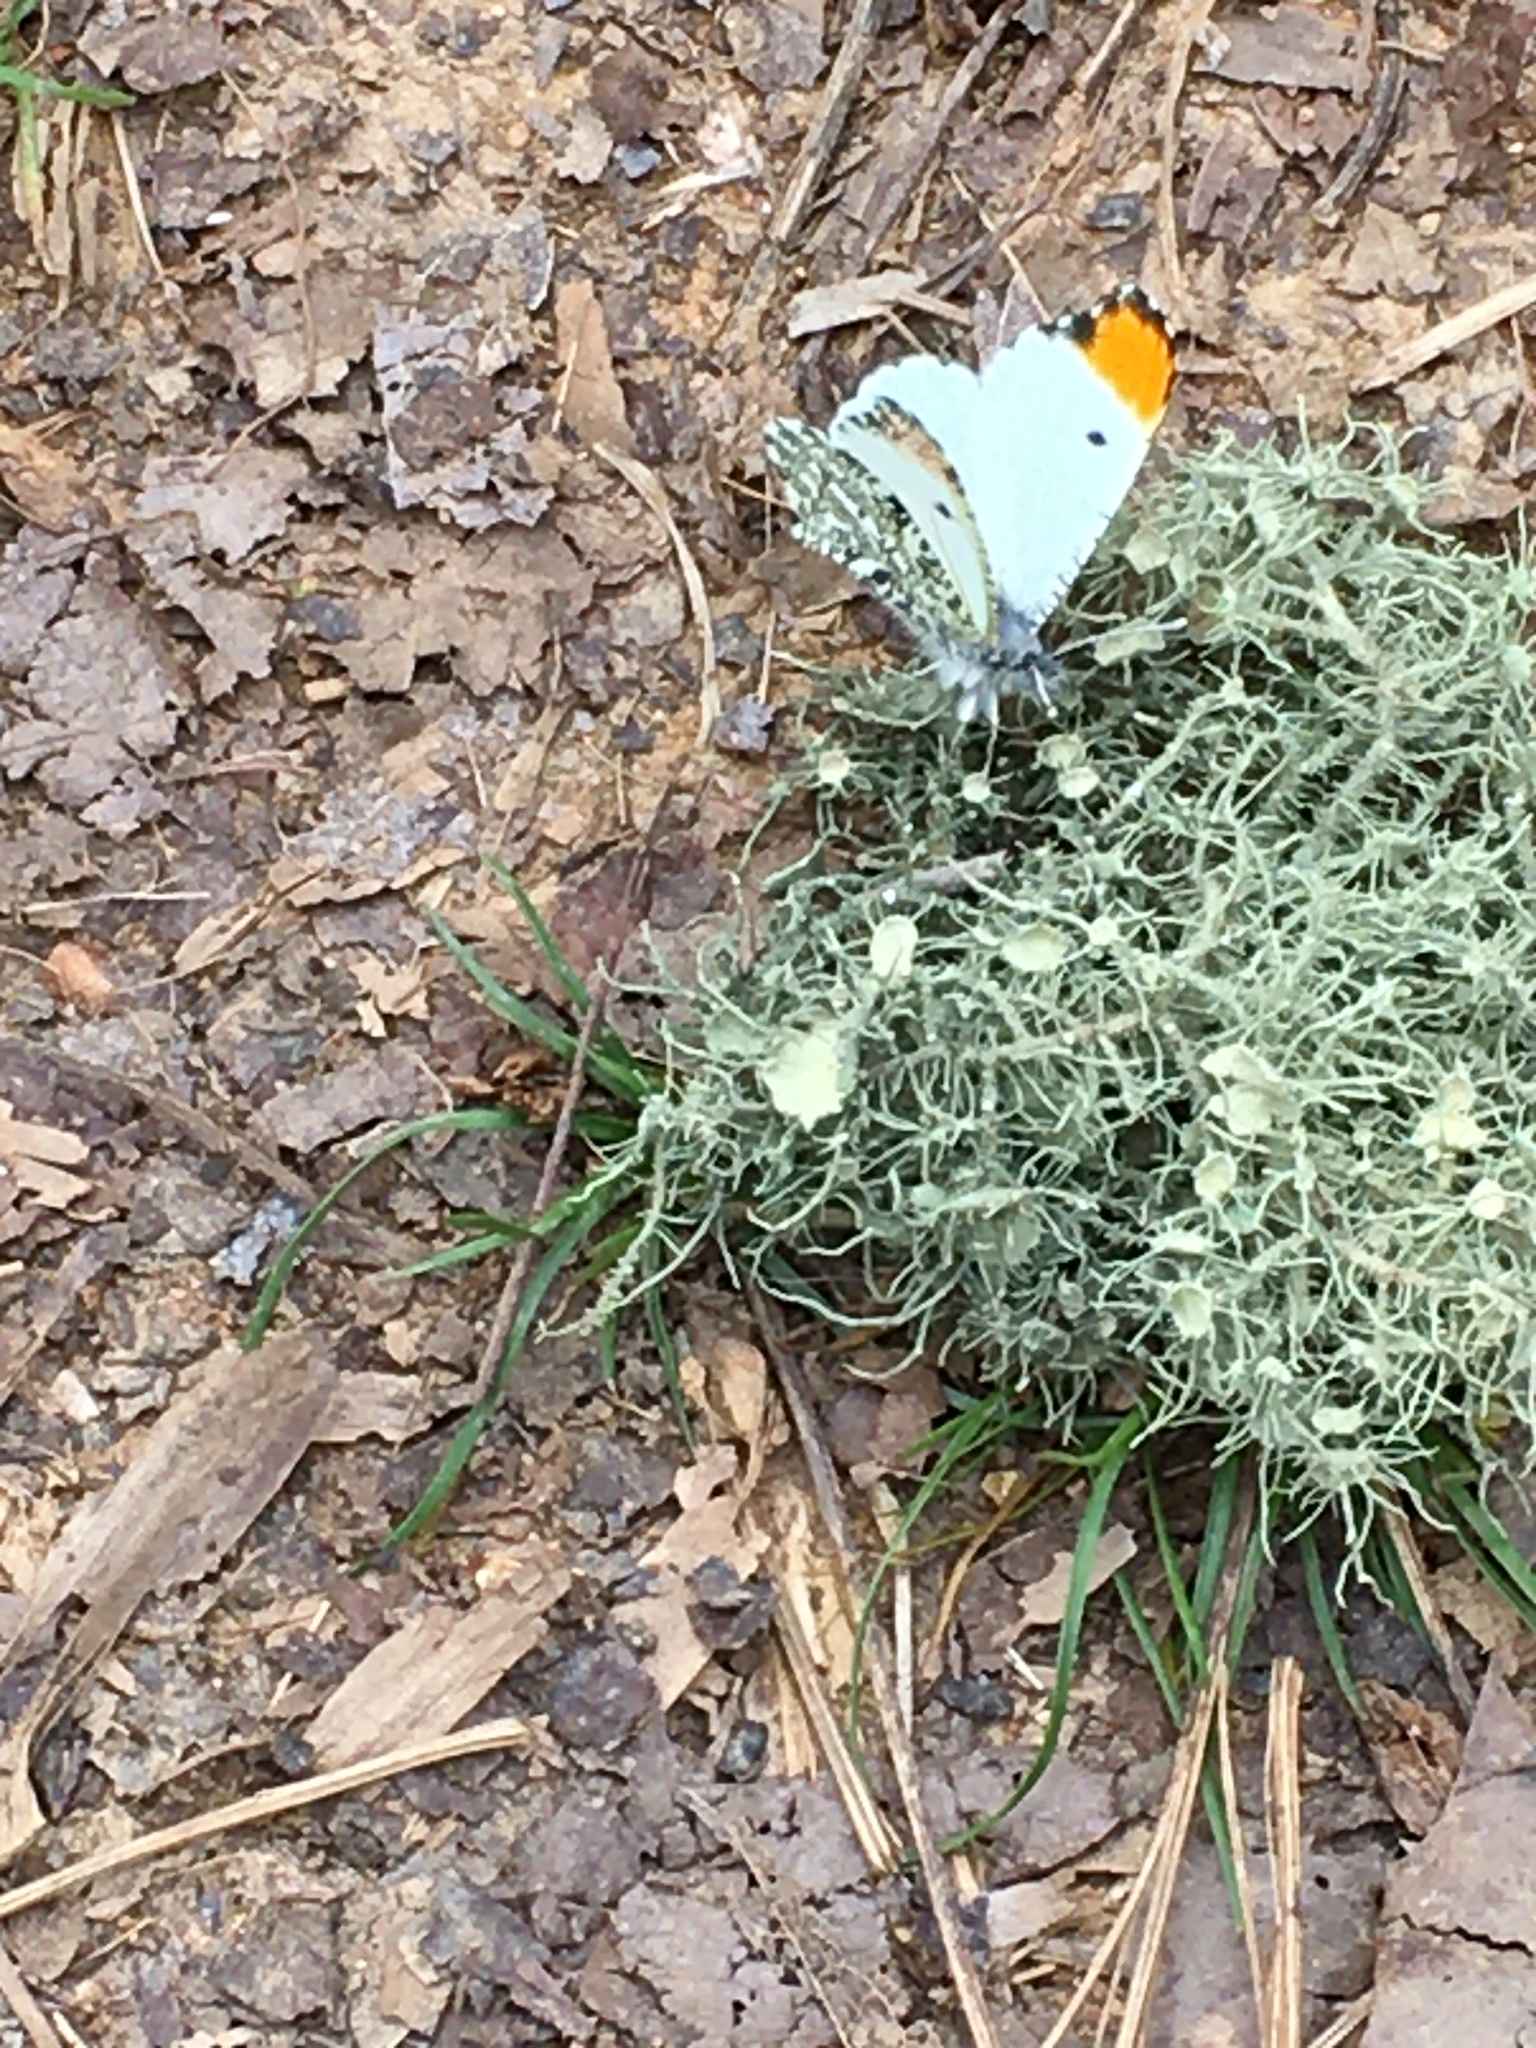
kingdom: Animalia
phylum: Arthropoda
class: Insecta
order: Lepidoptera
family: Pieridae
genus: Anthocharis
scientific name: Anthocharis midea
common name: Falcate orangetip
